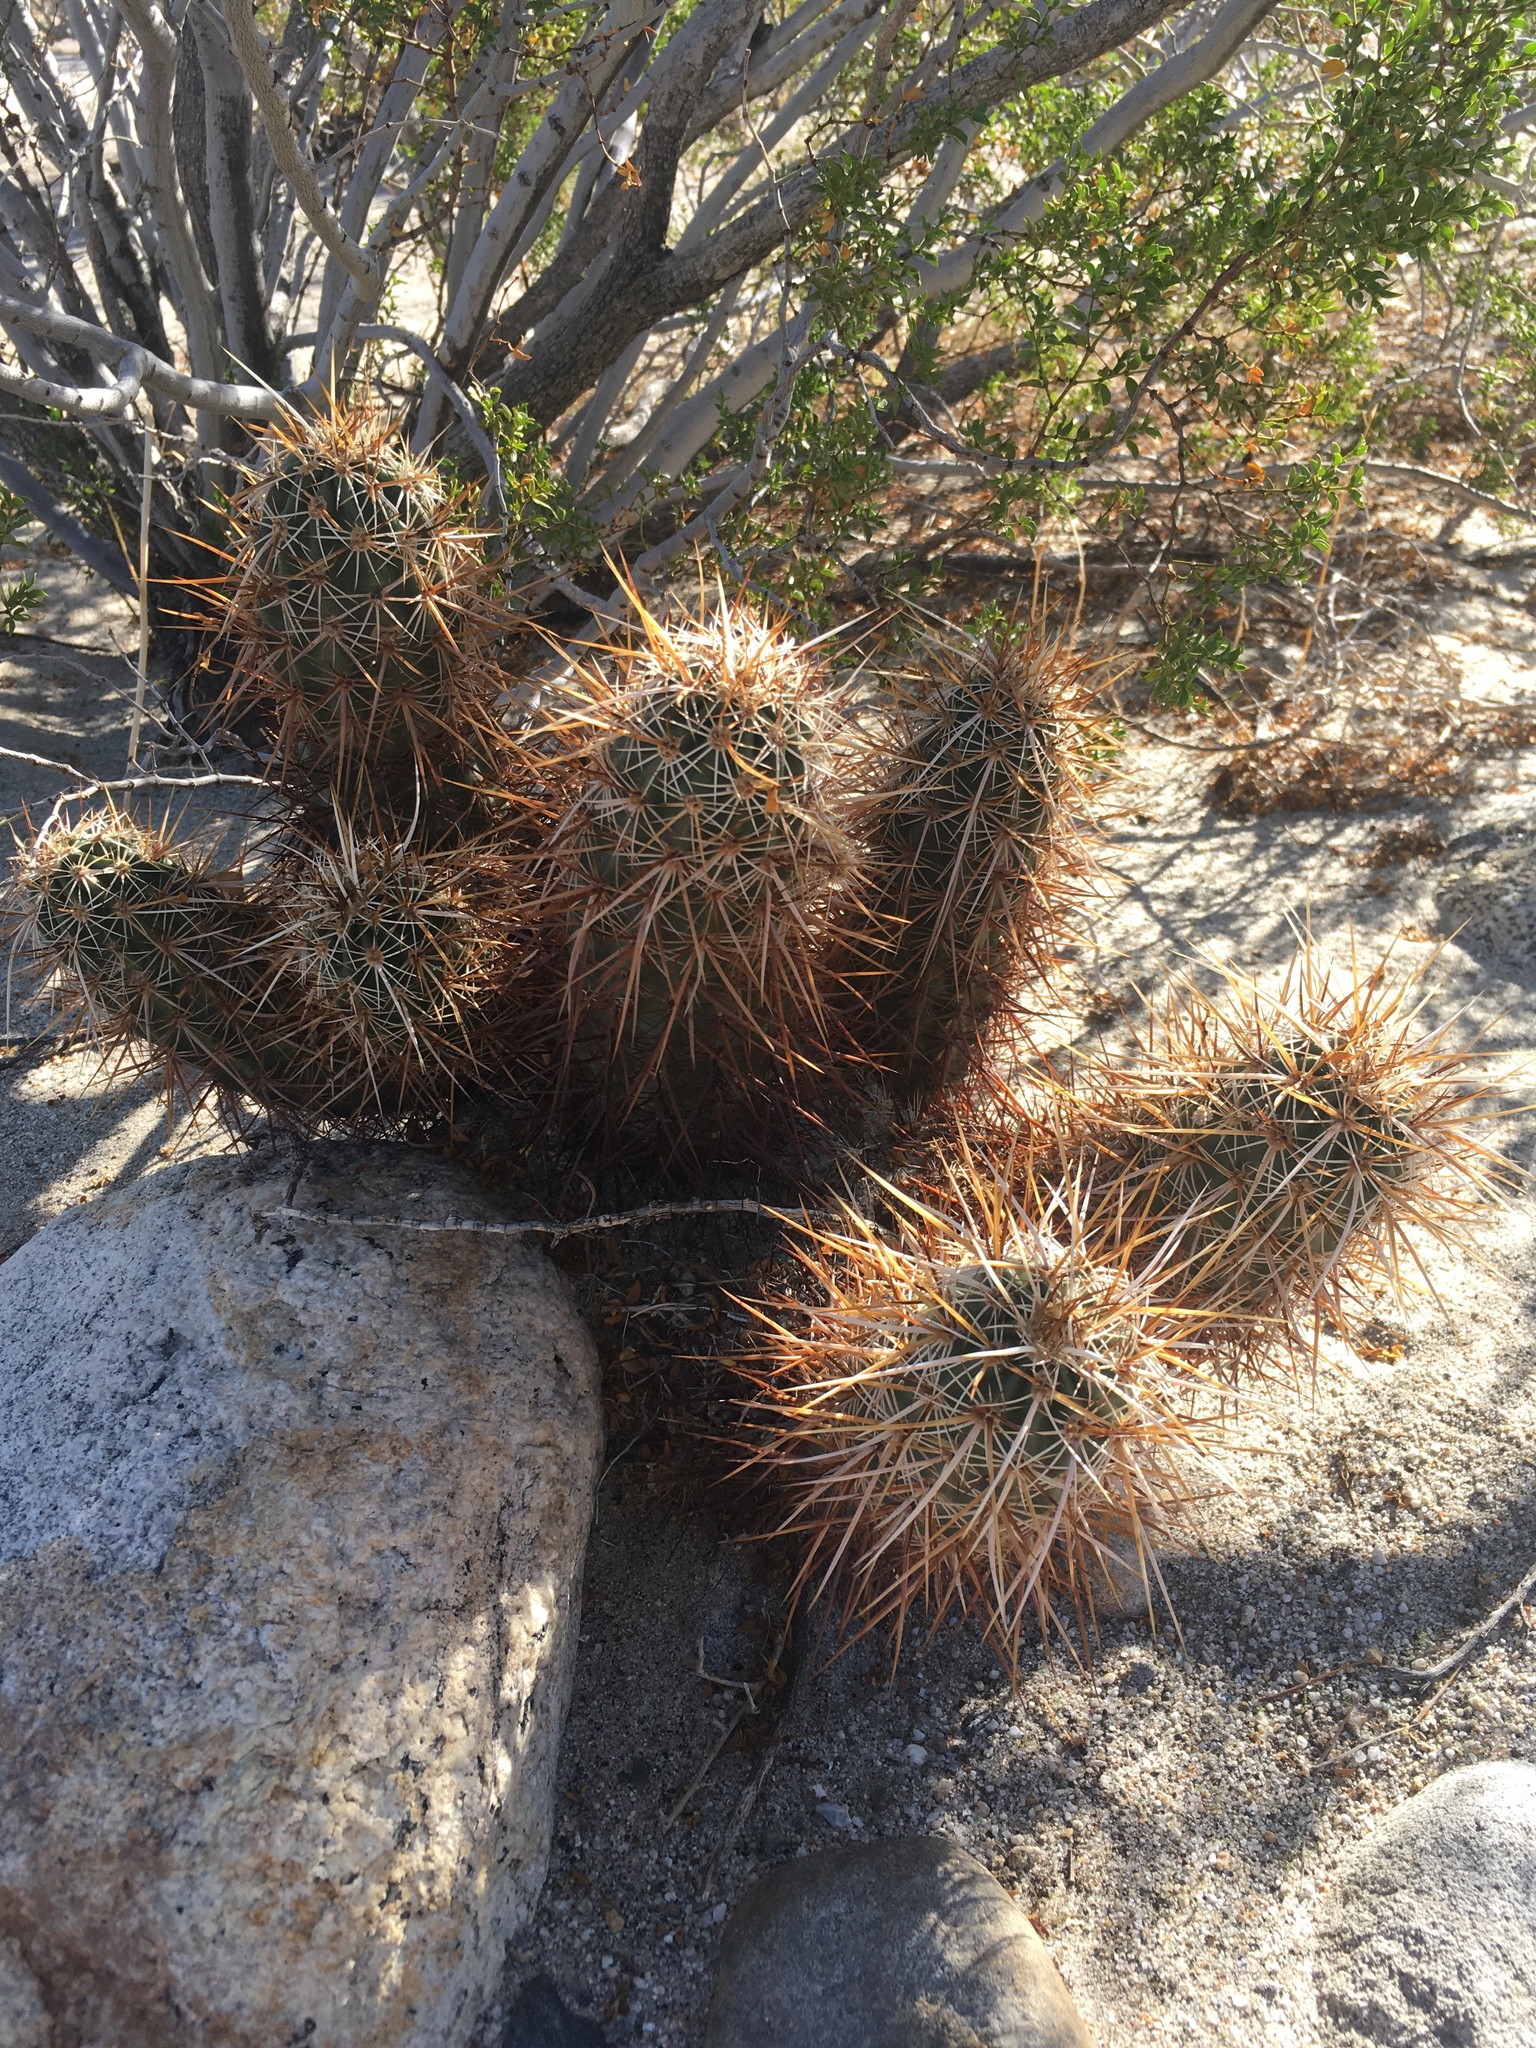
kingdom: Plantae
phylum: Tracheophyta
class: Magnoliopsida
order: Caryophyllales
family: Cactaceae
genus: Echinocereus
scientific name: Echinocereus engelmannii
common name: Engelmann's hedgehog cactus
